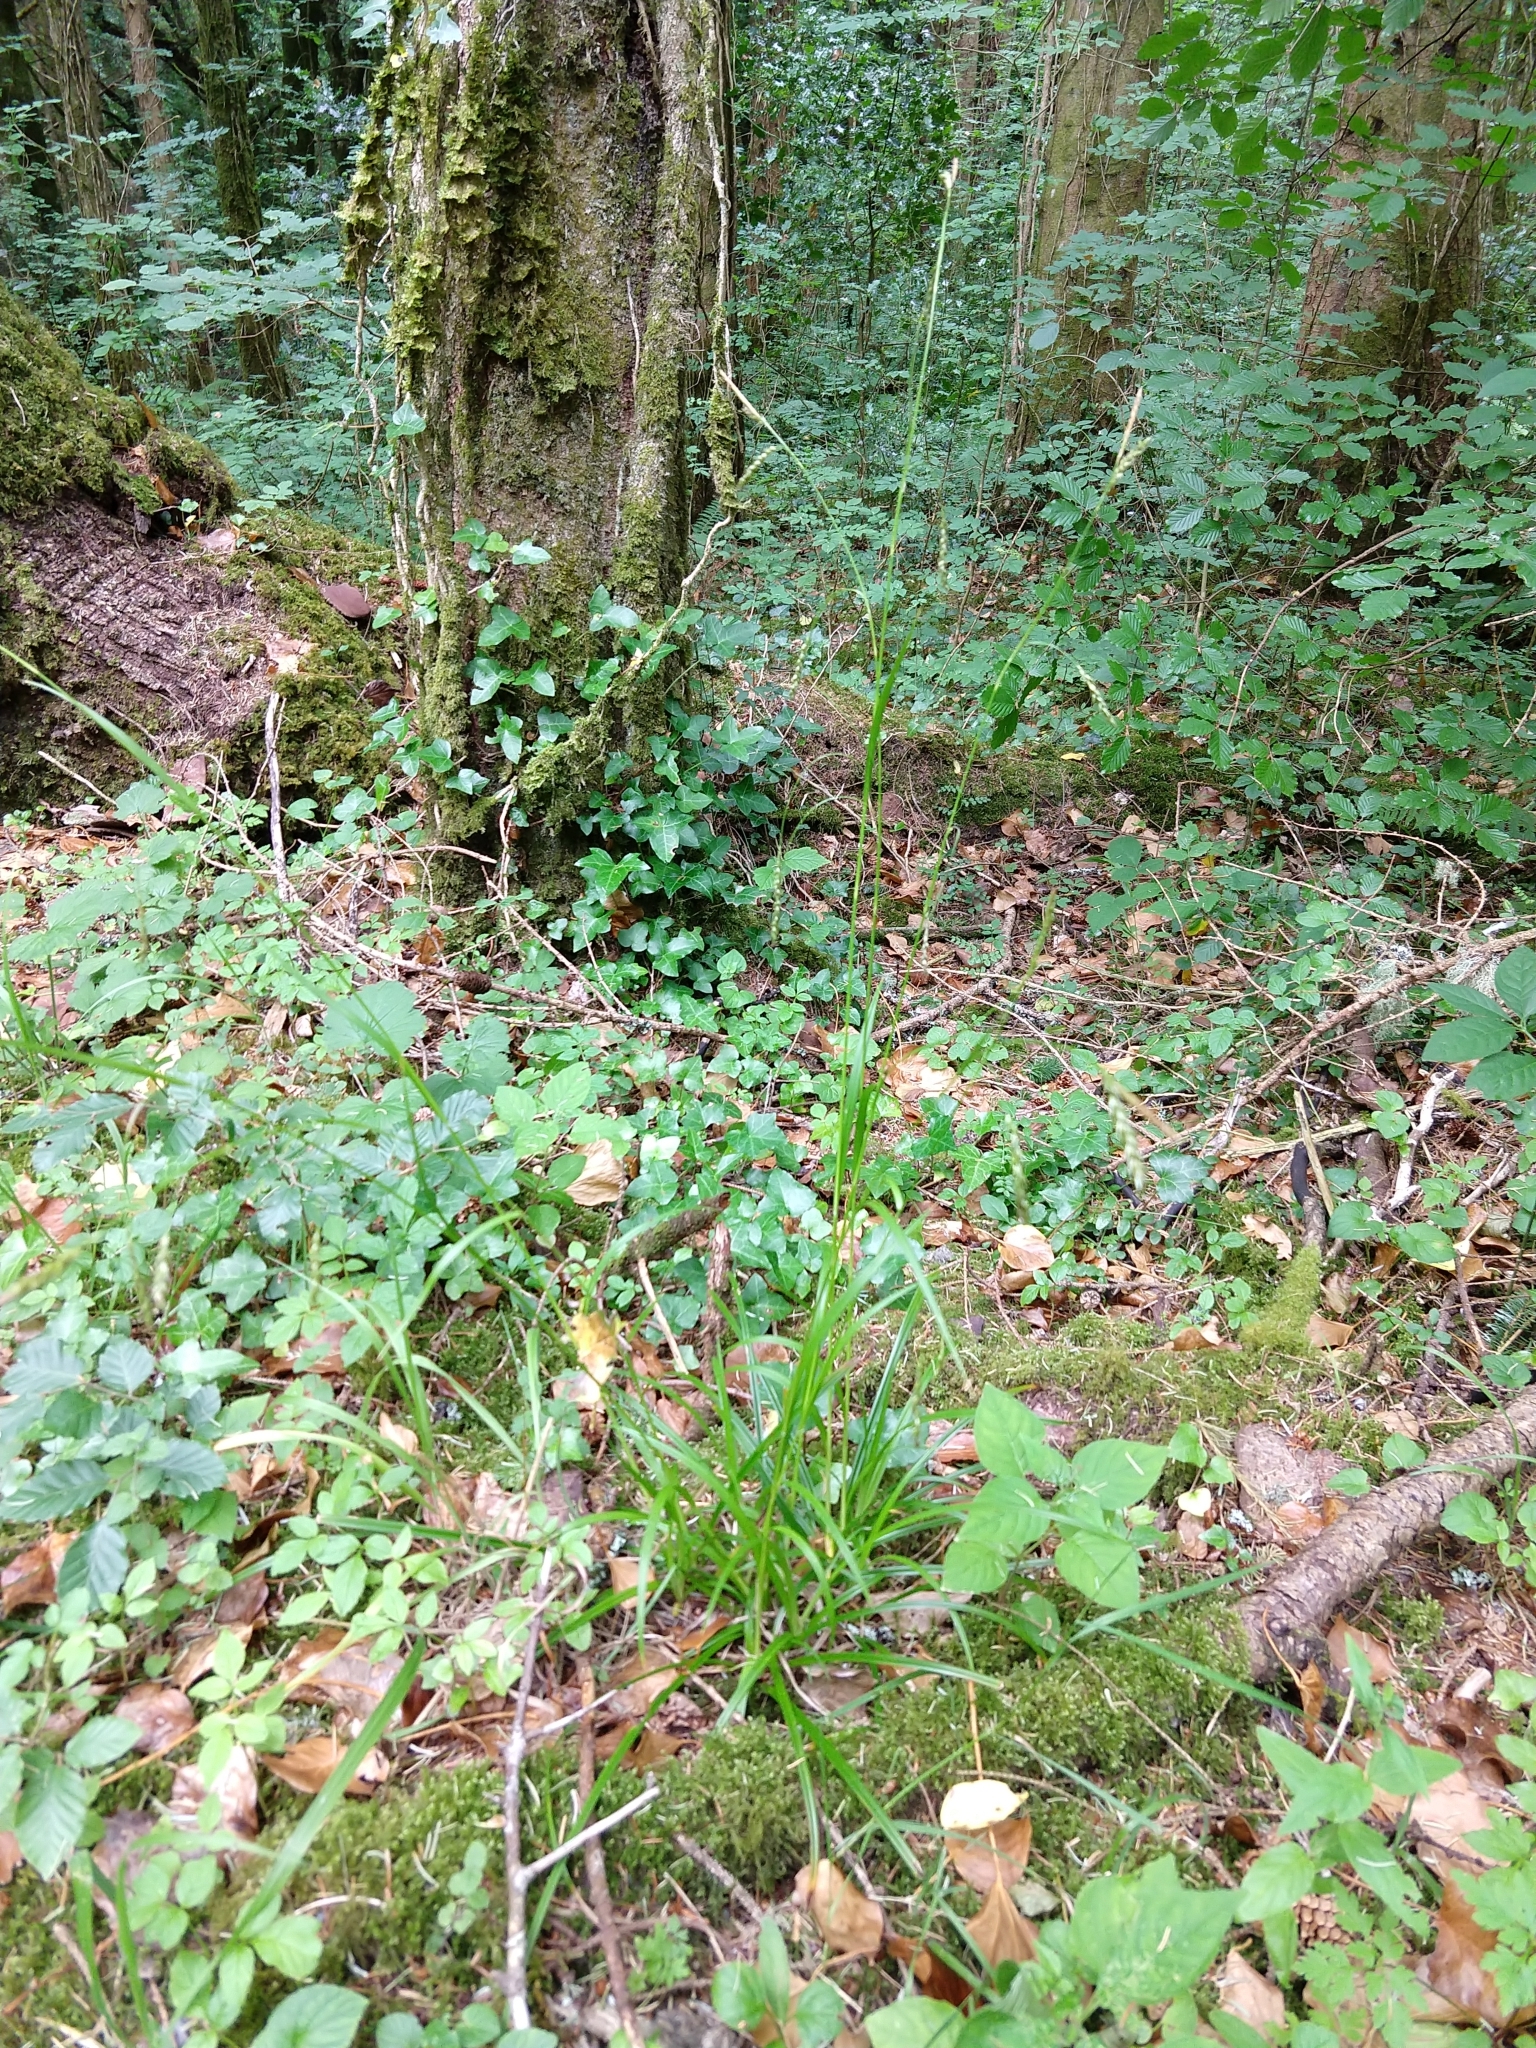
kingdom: Plantae
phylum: Tracheophyta
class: Liliopsida
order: Poales
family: Cyperaceae
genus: Carex
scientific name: Carex sylvatica
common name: Wood-sedge
